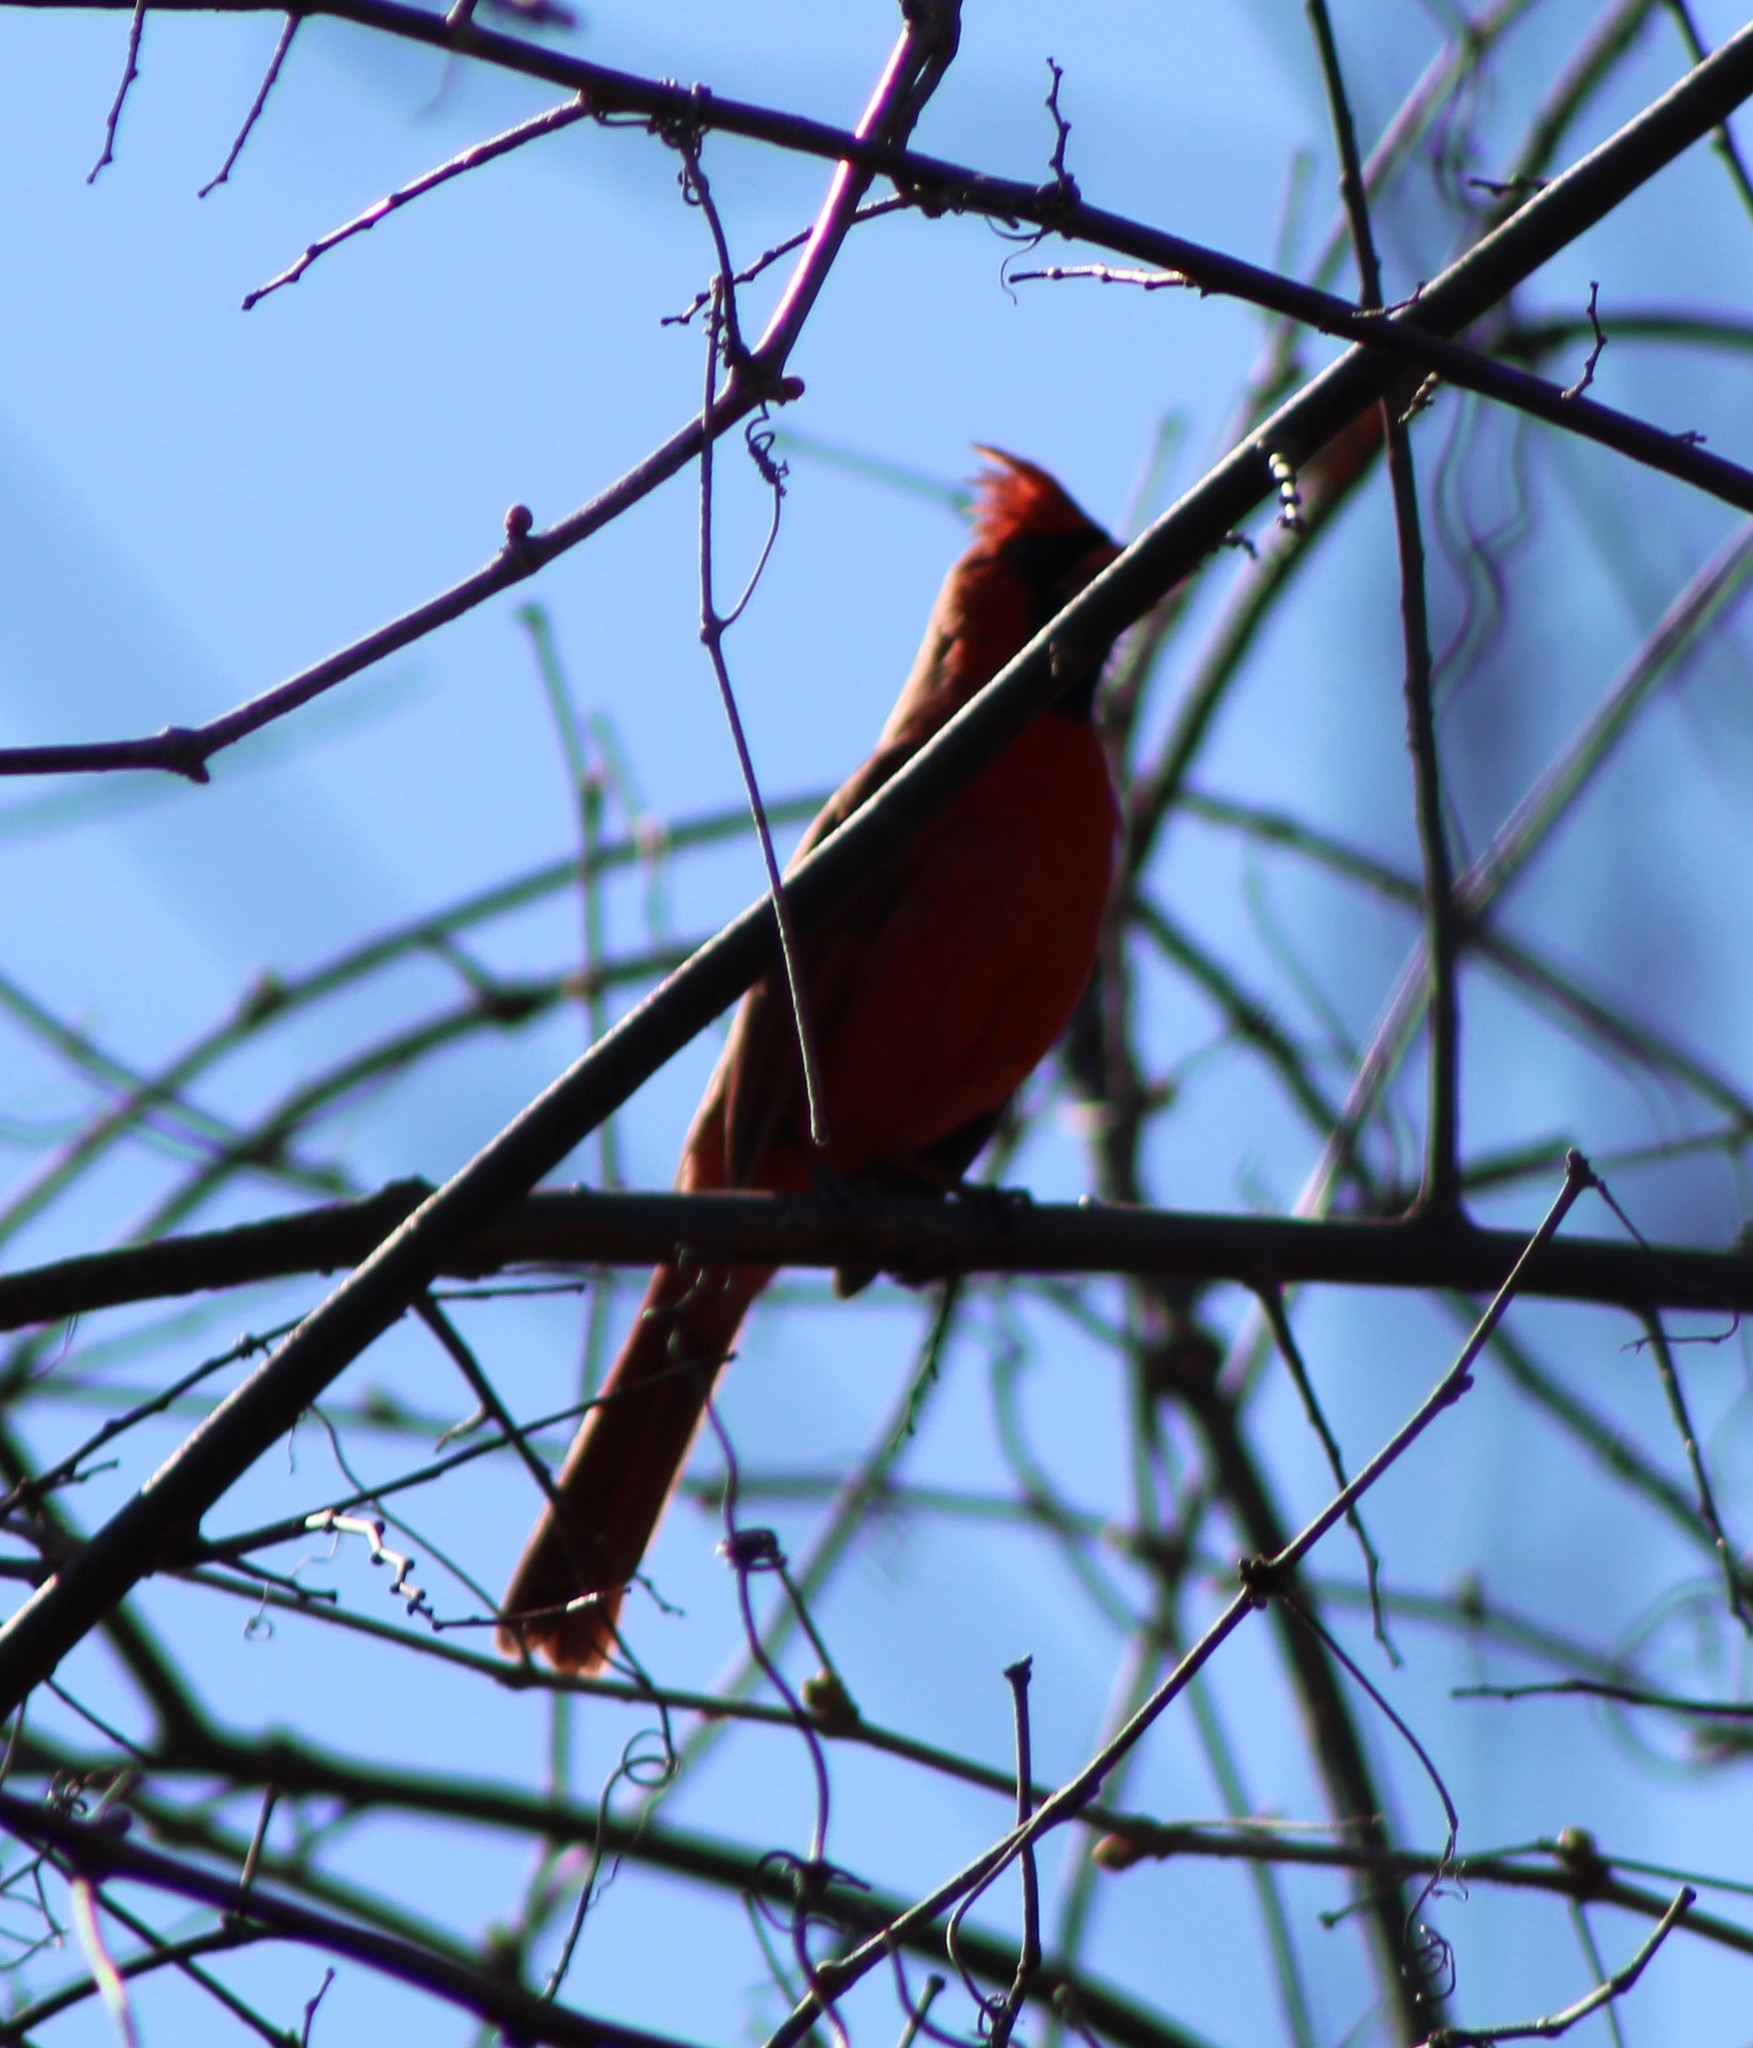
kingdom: Animalia
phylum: Chordata
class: Aves
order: Passeriformes
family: Cardinalidae
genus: Cardinalis
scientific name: Cardinalis cardinalis
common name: Northern cardinal
